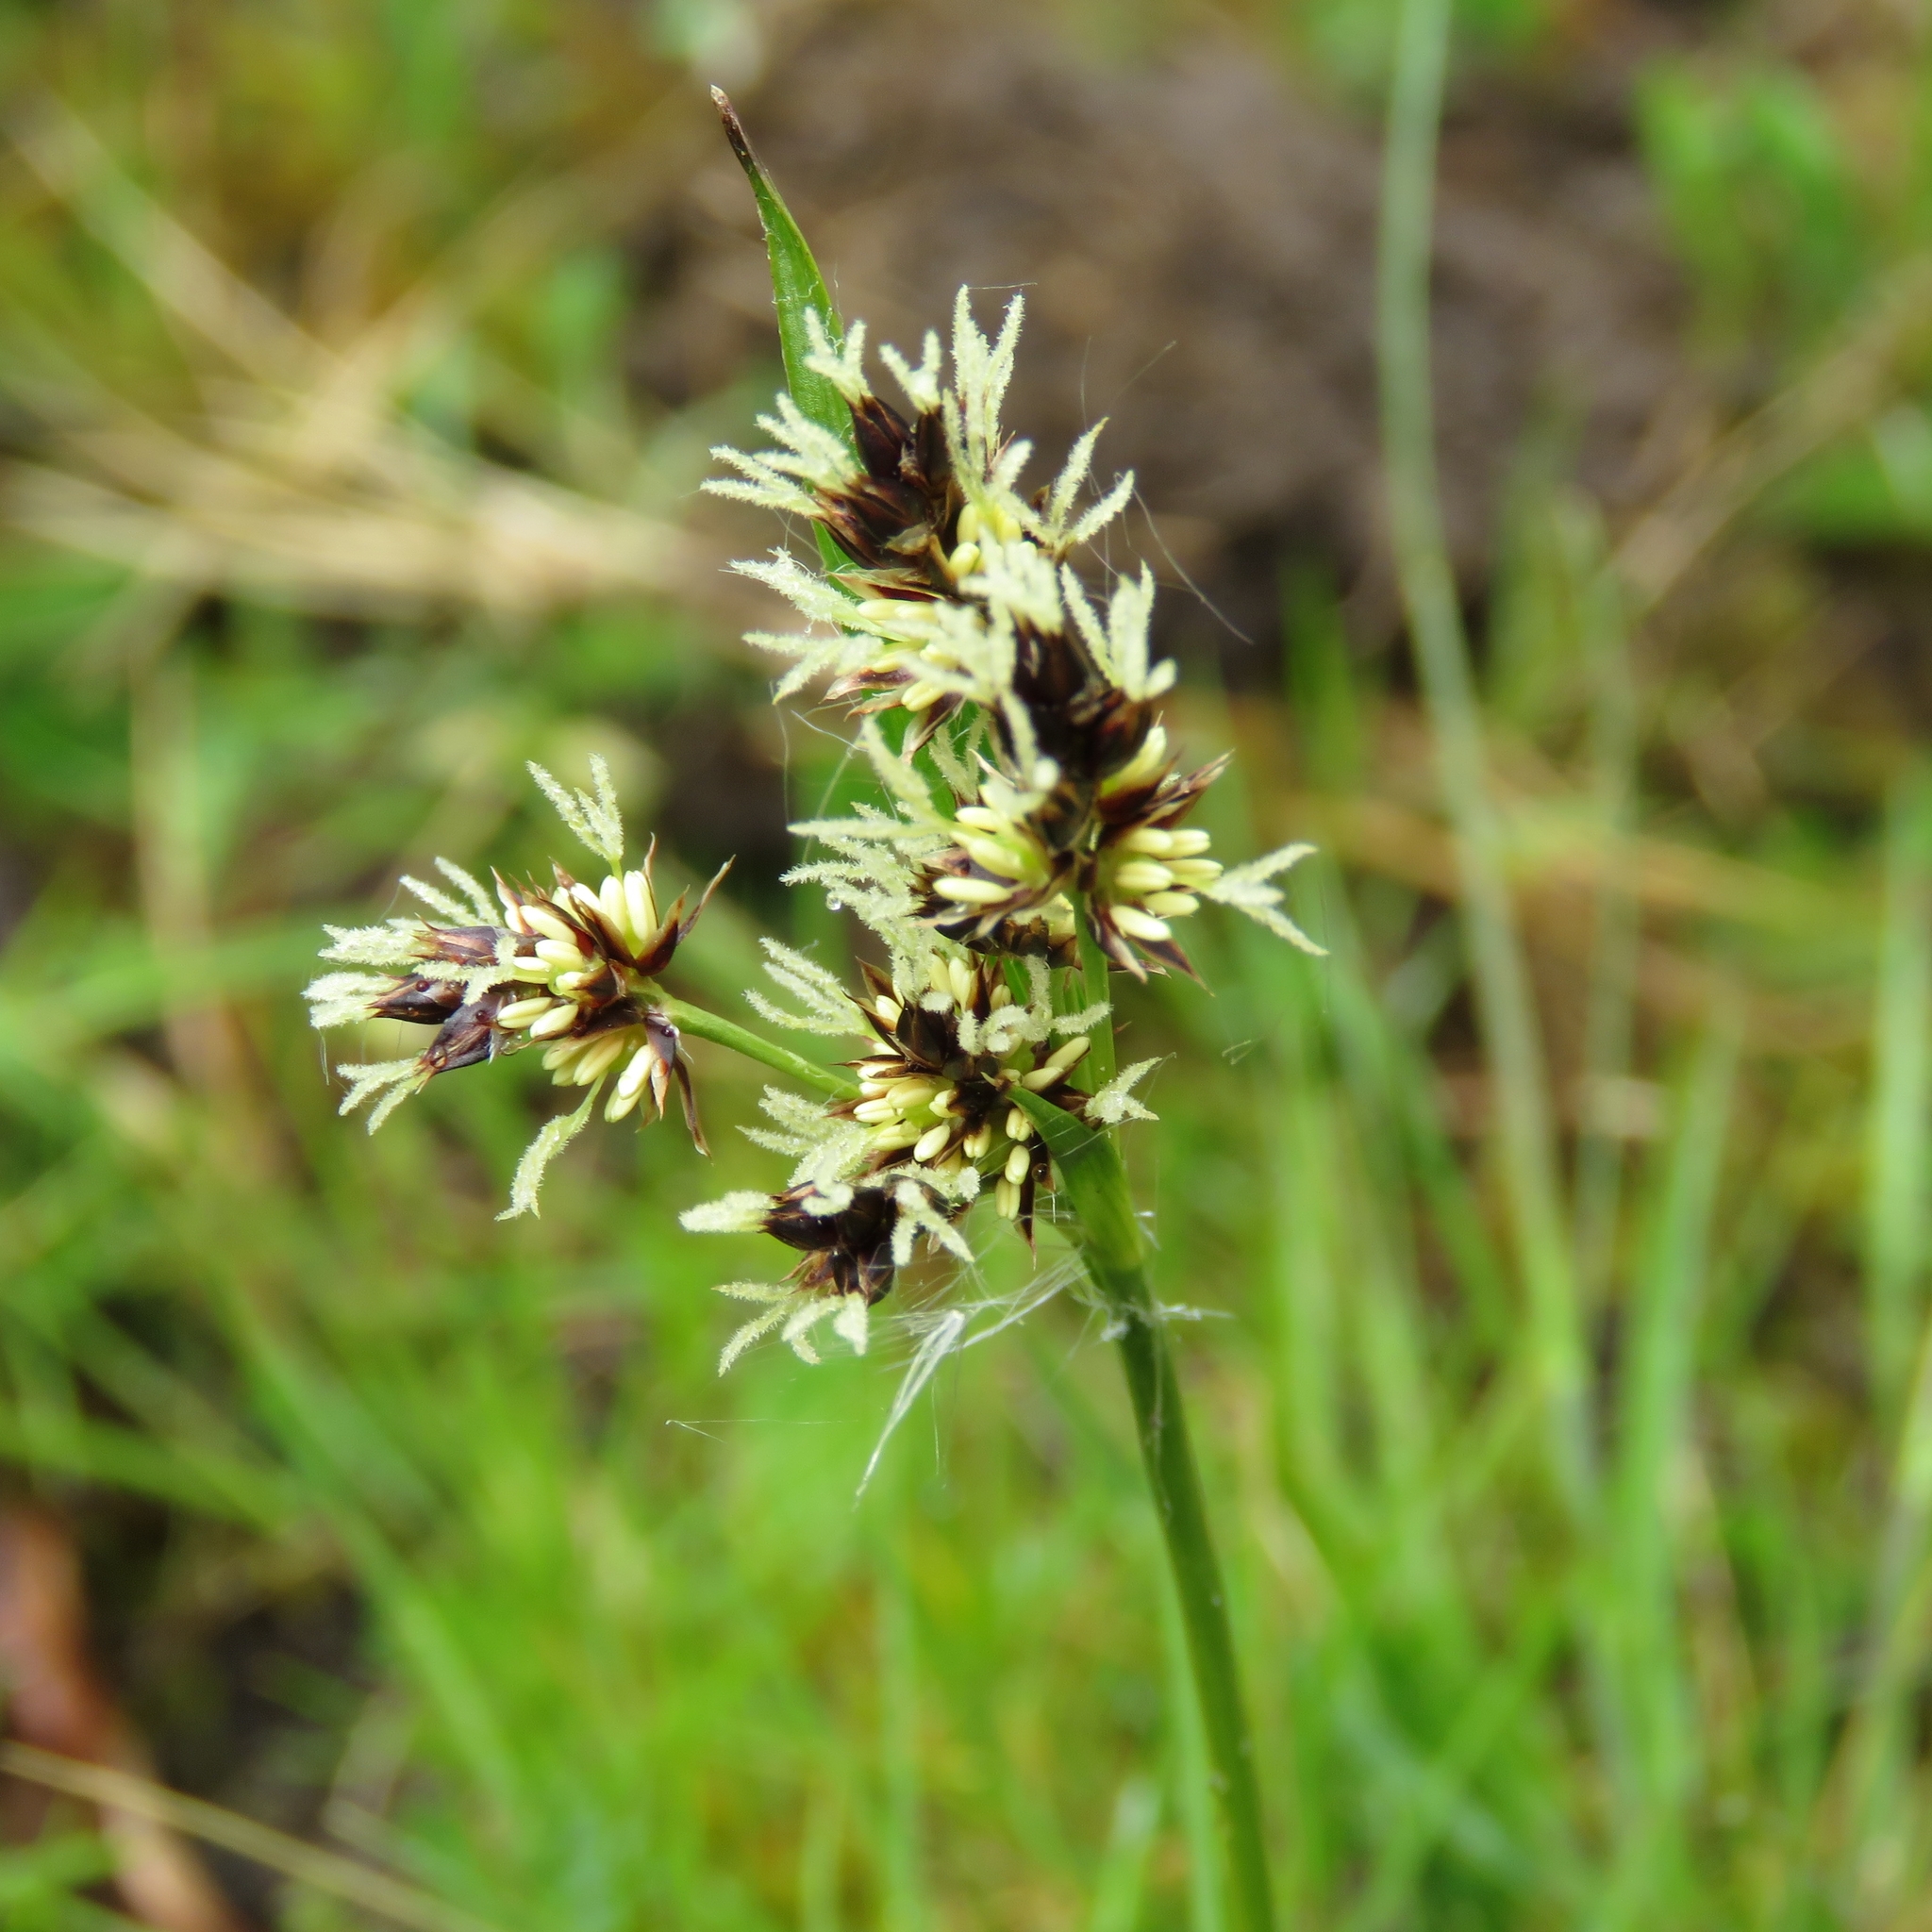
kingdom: Plantae
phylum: Tracheophyta
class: Liliopsida
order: Poales
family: Juncaceae
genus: Luzula
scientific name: Luzula campestris
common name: Field wood-rush
